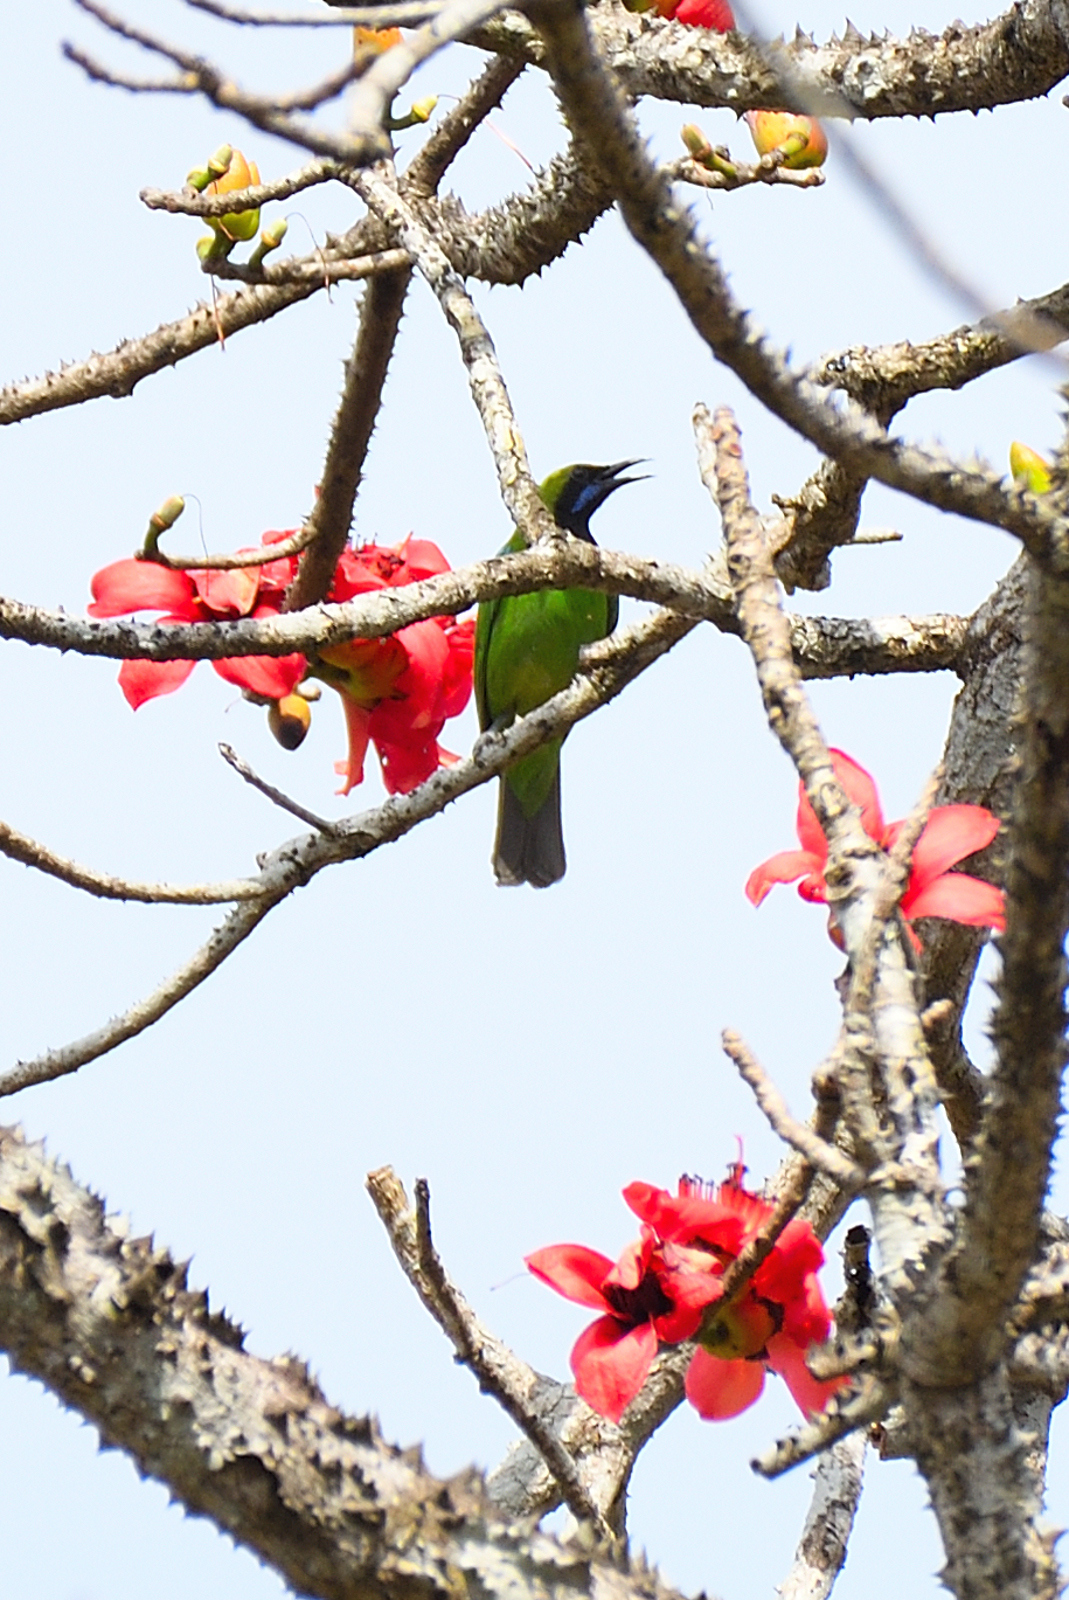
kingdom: Animalia
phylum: Chordata
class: Aves
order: Passeriformes
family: Chloropseidae
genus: Chloropsis
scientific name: Chloropsis jerdoni
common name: Jerdon's leafbird
